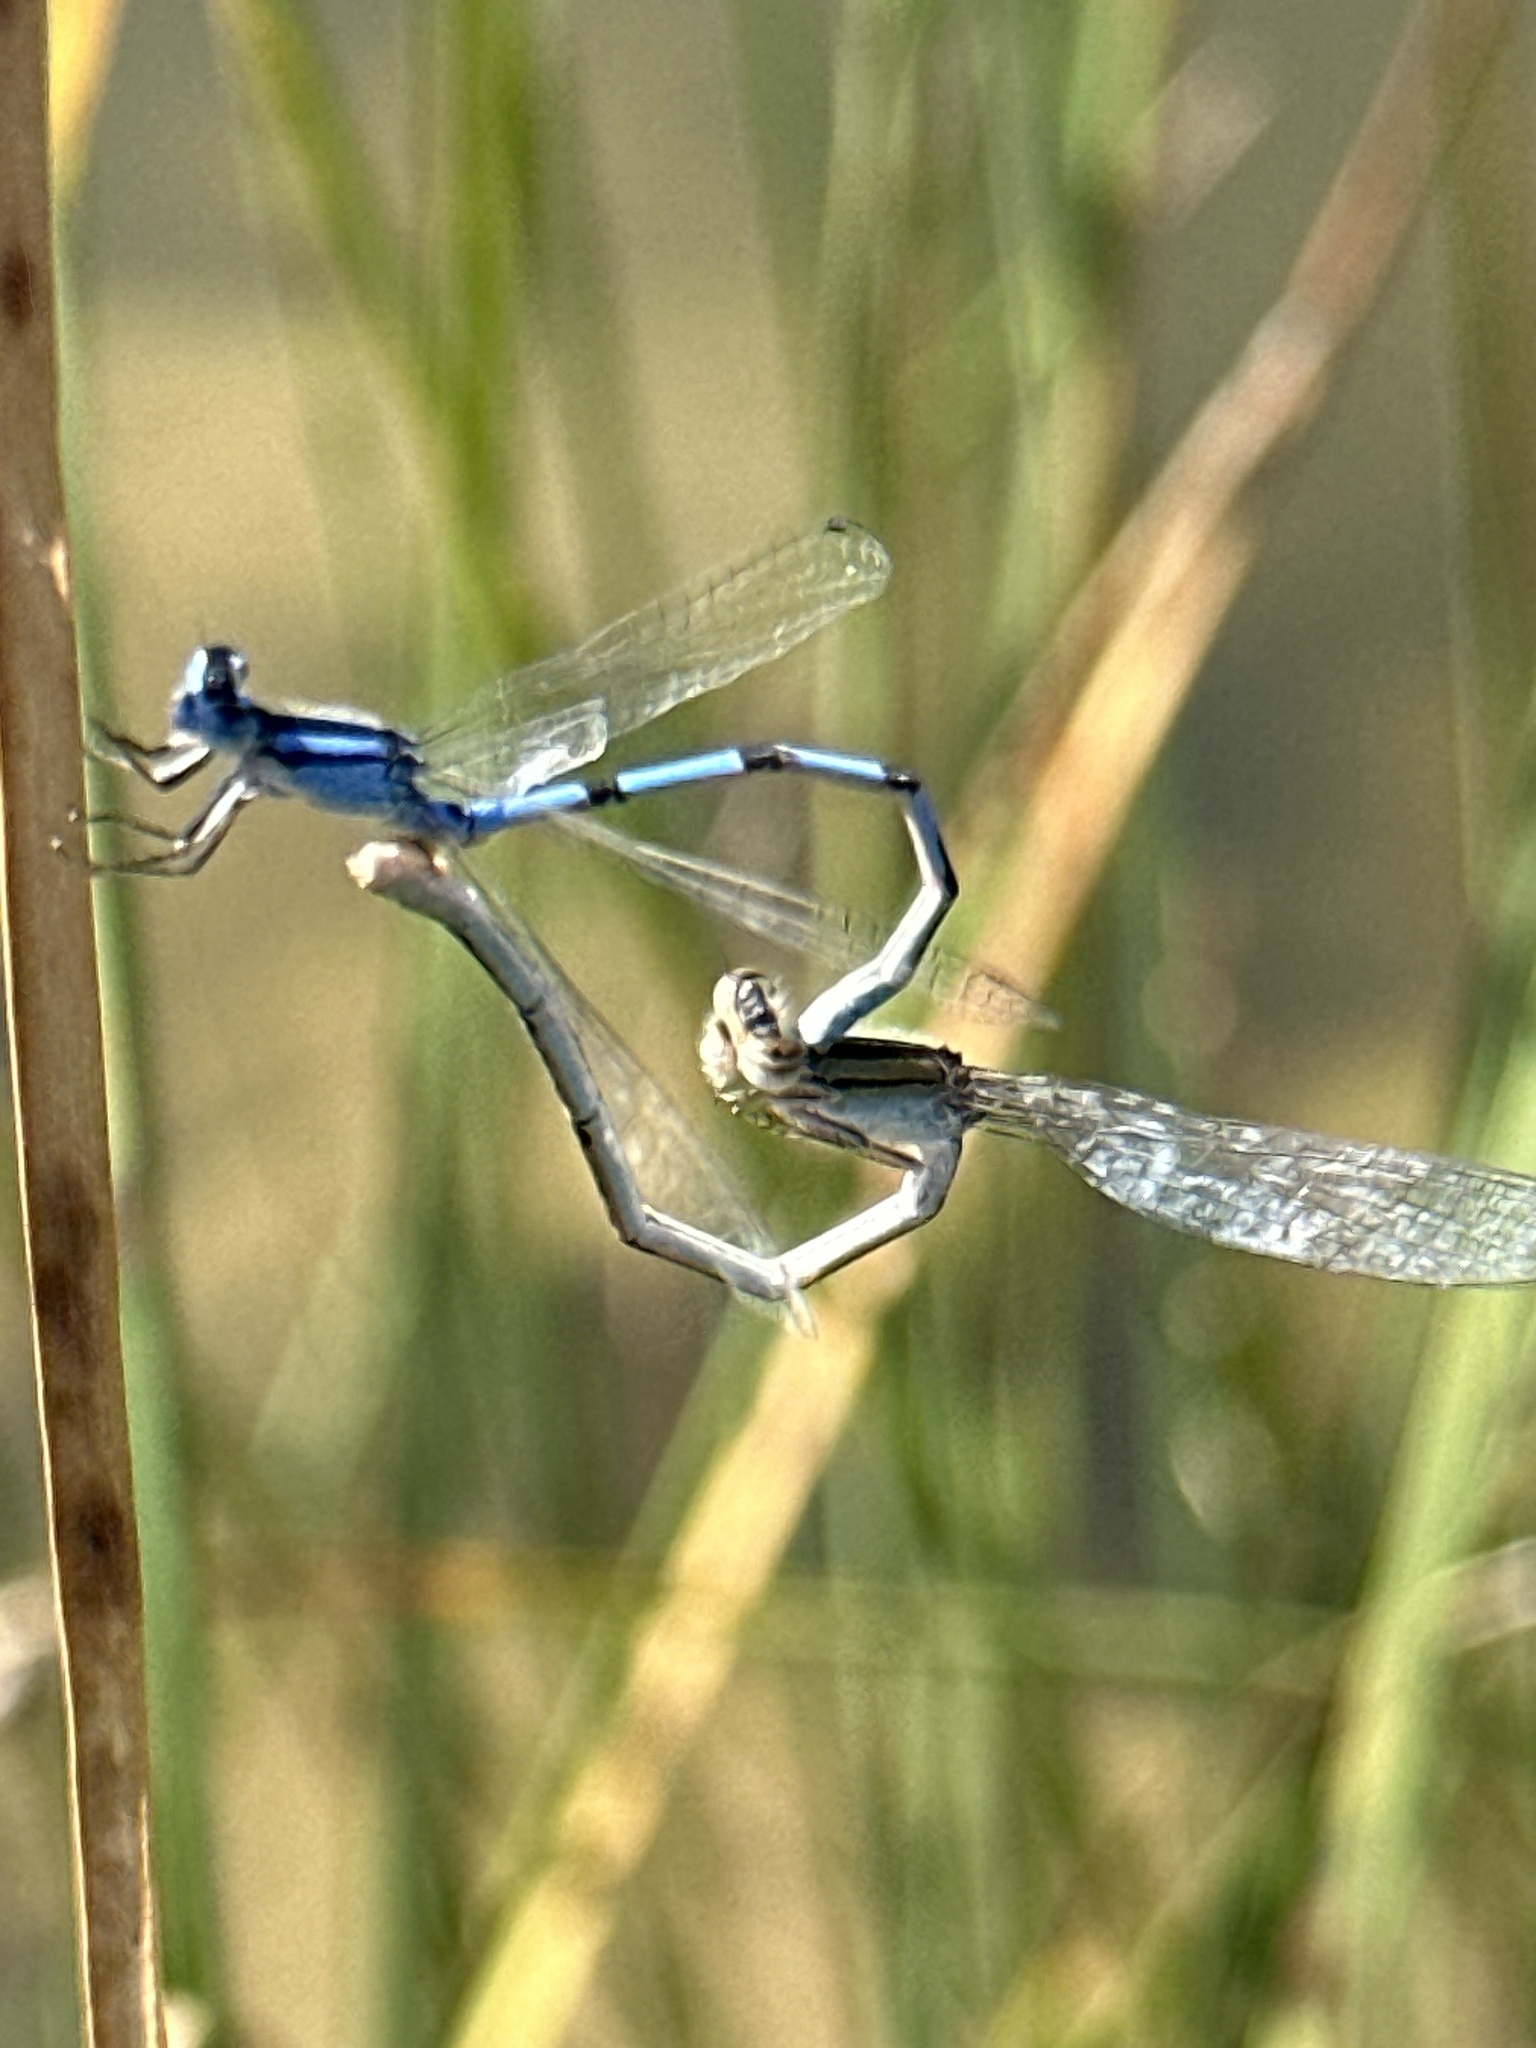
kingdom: Animalia
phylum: Arthropoda
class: Insecta
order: Odonata
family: Coenagrionidae
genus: Enallagma
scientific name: Enallagma civile
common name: Damselfly
